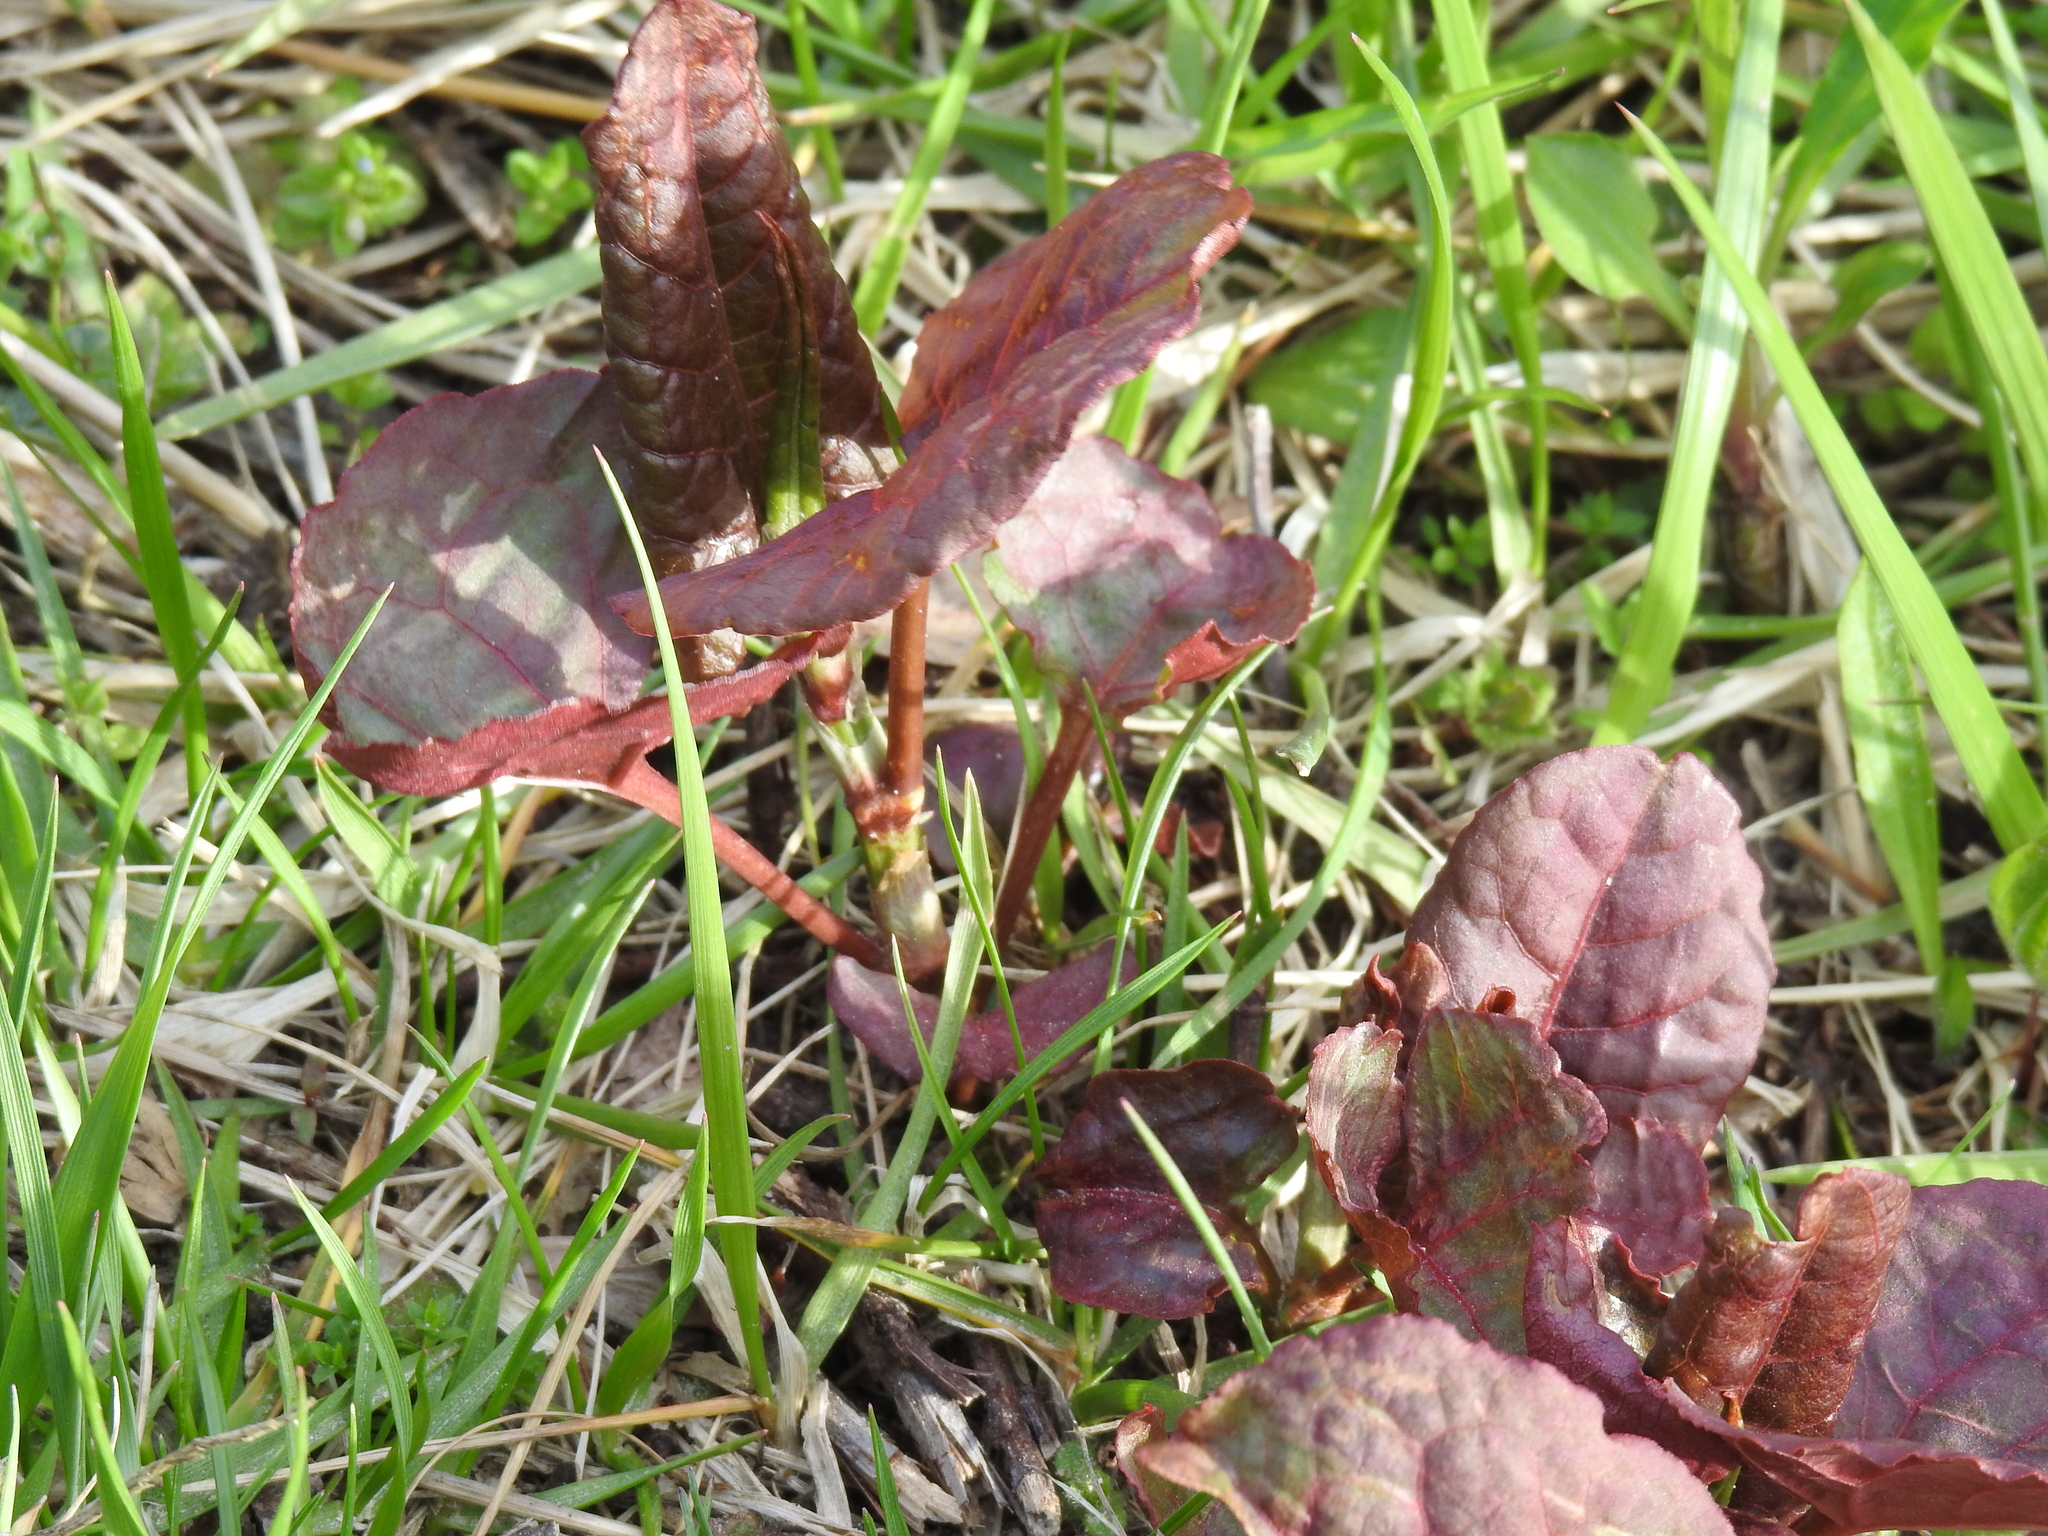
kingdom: Plantae
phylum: Tracheophyta
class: Magnoliopsida
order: Caryophyllales
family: Polygonaceae
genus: Reynoutria
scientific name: Reynoutria japonica
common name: Japanese knotweed
